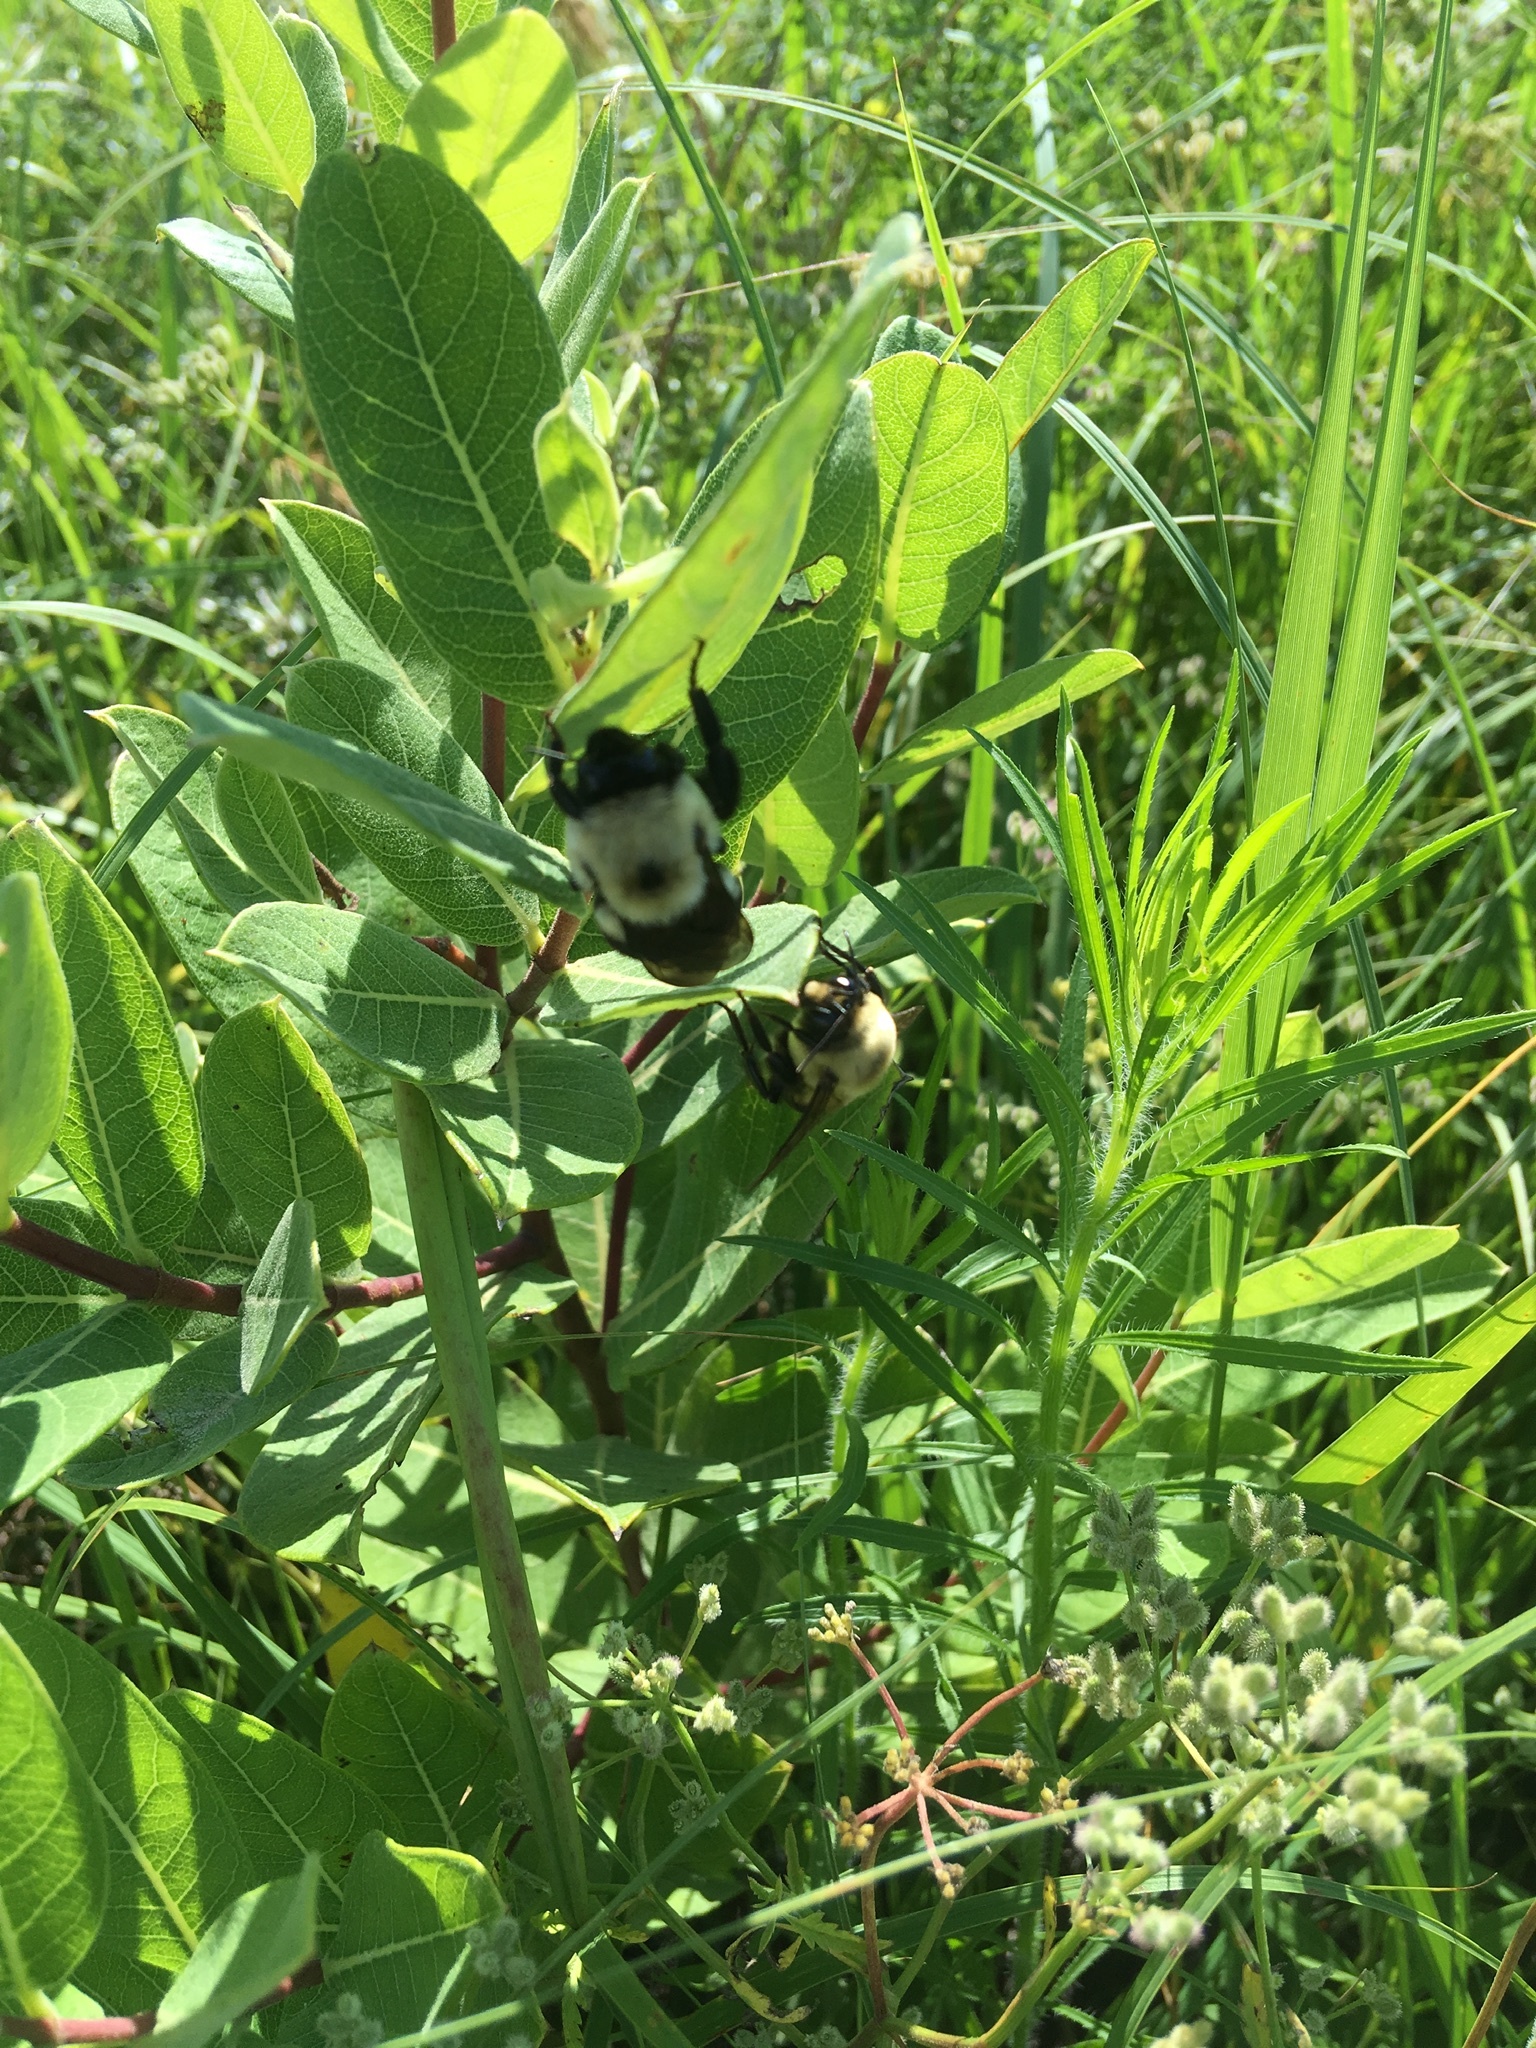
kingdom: Animalia
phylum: Arthropoda
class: Insecta
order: Hymenoptera
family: Apidae
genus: Bombus
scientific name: Bombus griseocollis
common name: Brown-belted bumble bee
